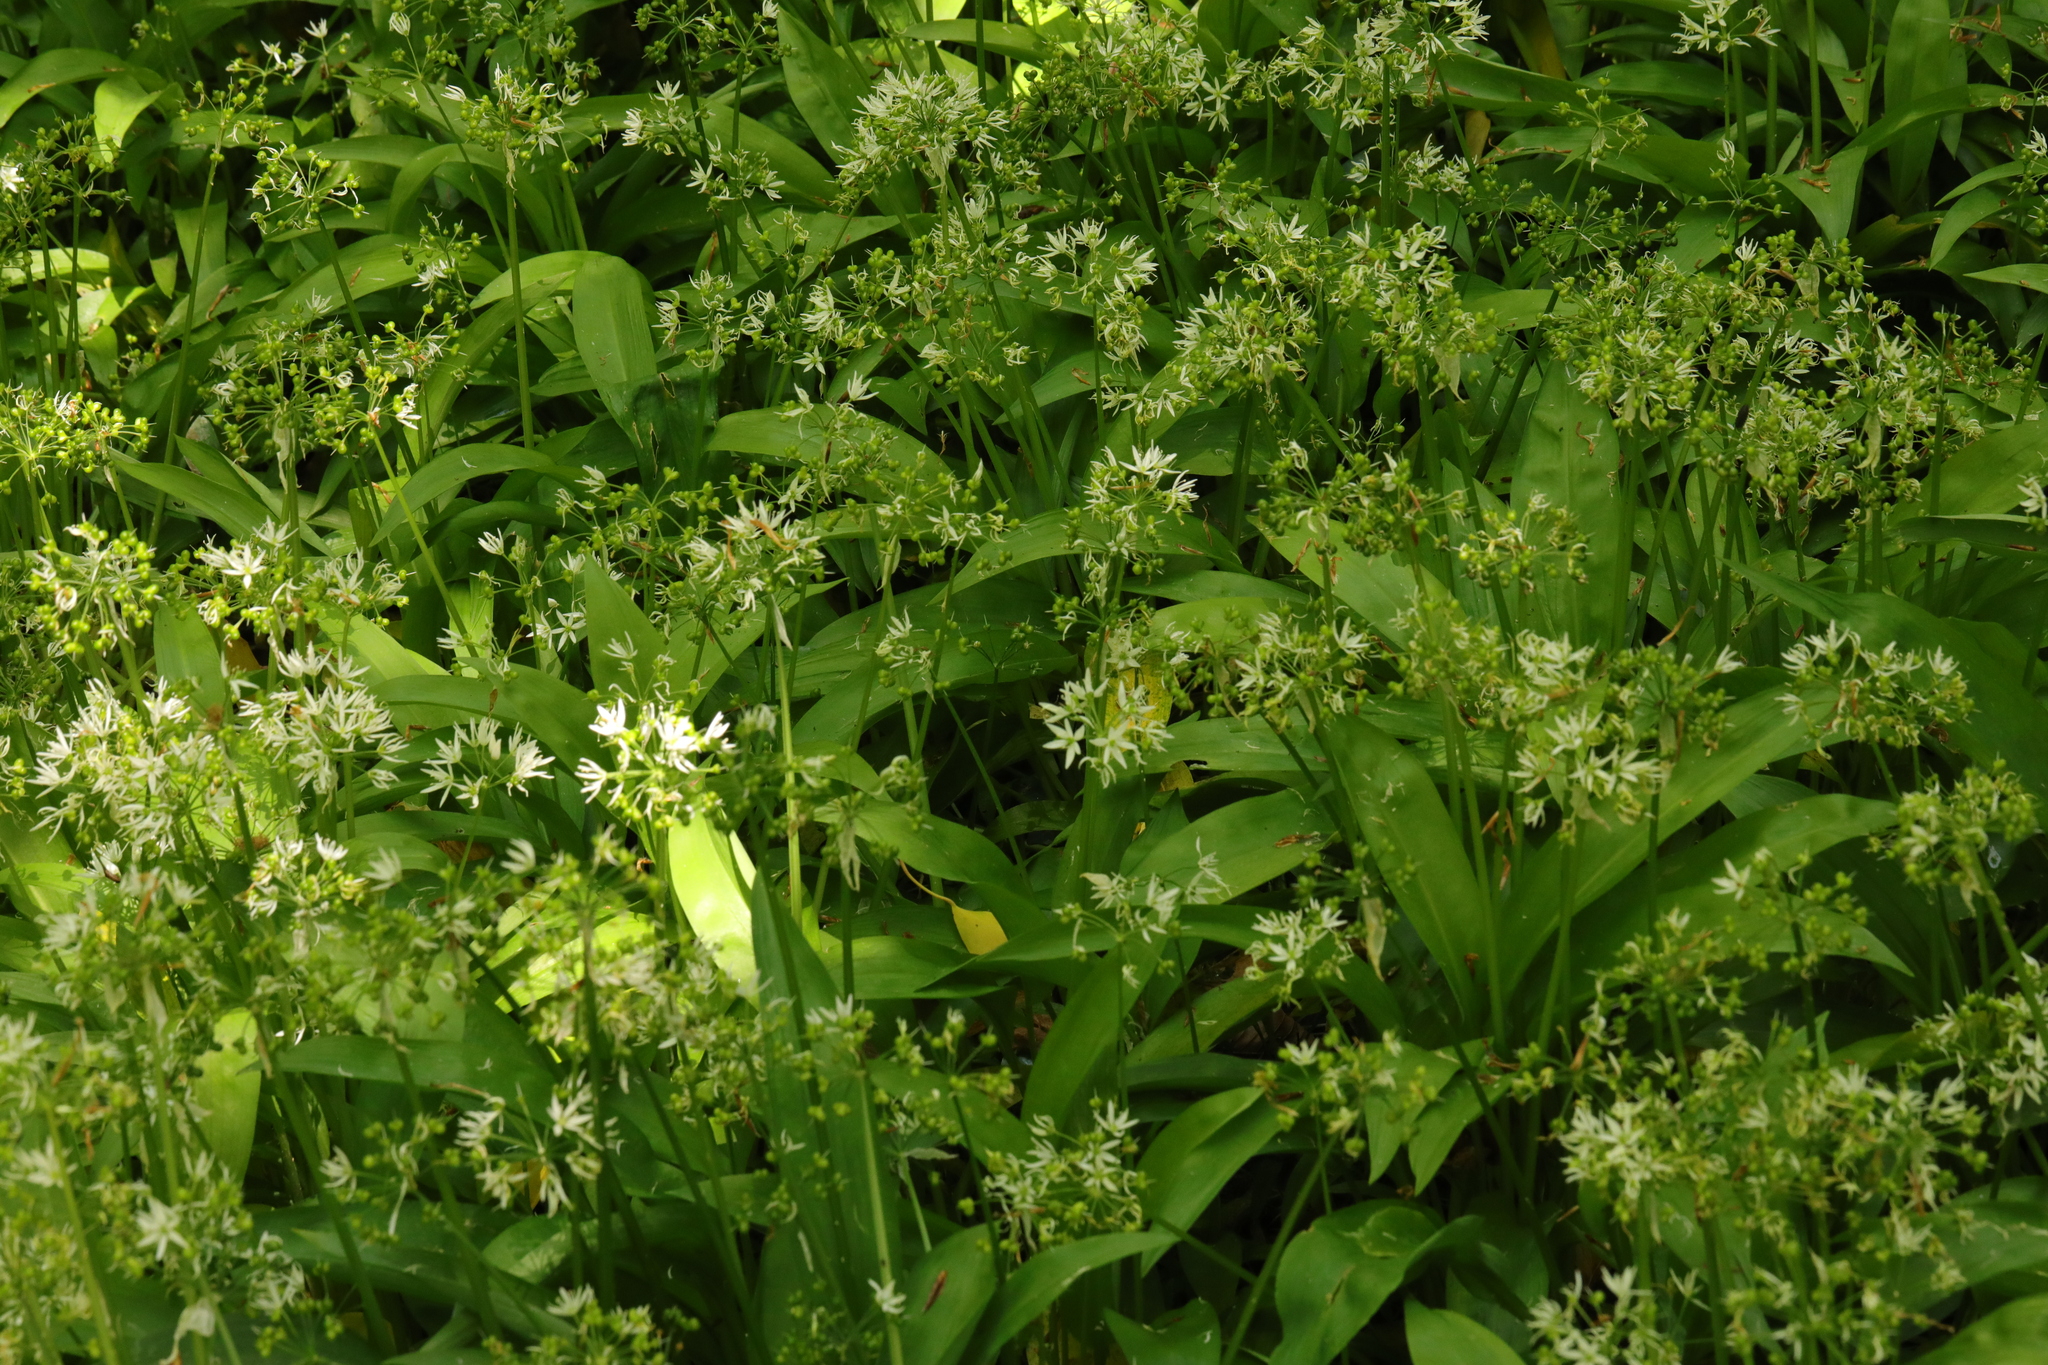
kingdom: Plantae
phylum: Tracheophyta
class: Liliopsida
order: Asparagales
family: Amaryllidaceae
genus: Allium
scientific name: Allium ursinum
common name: Ramsons
